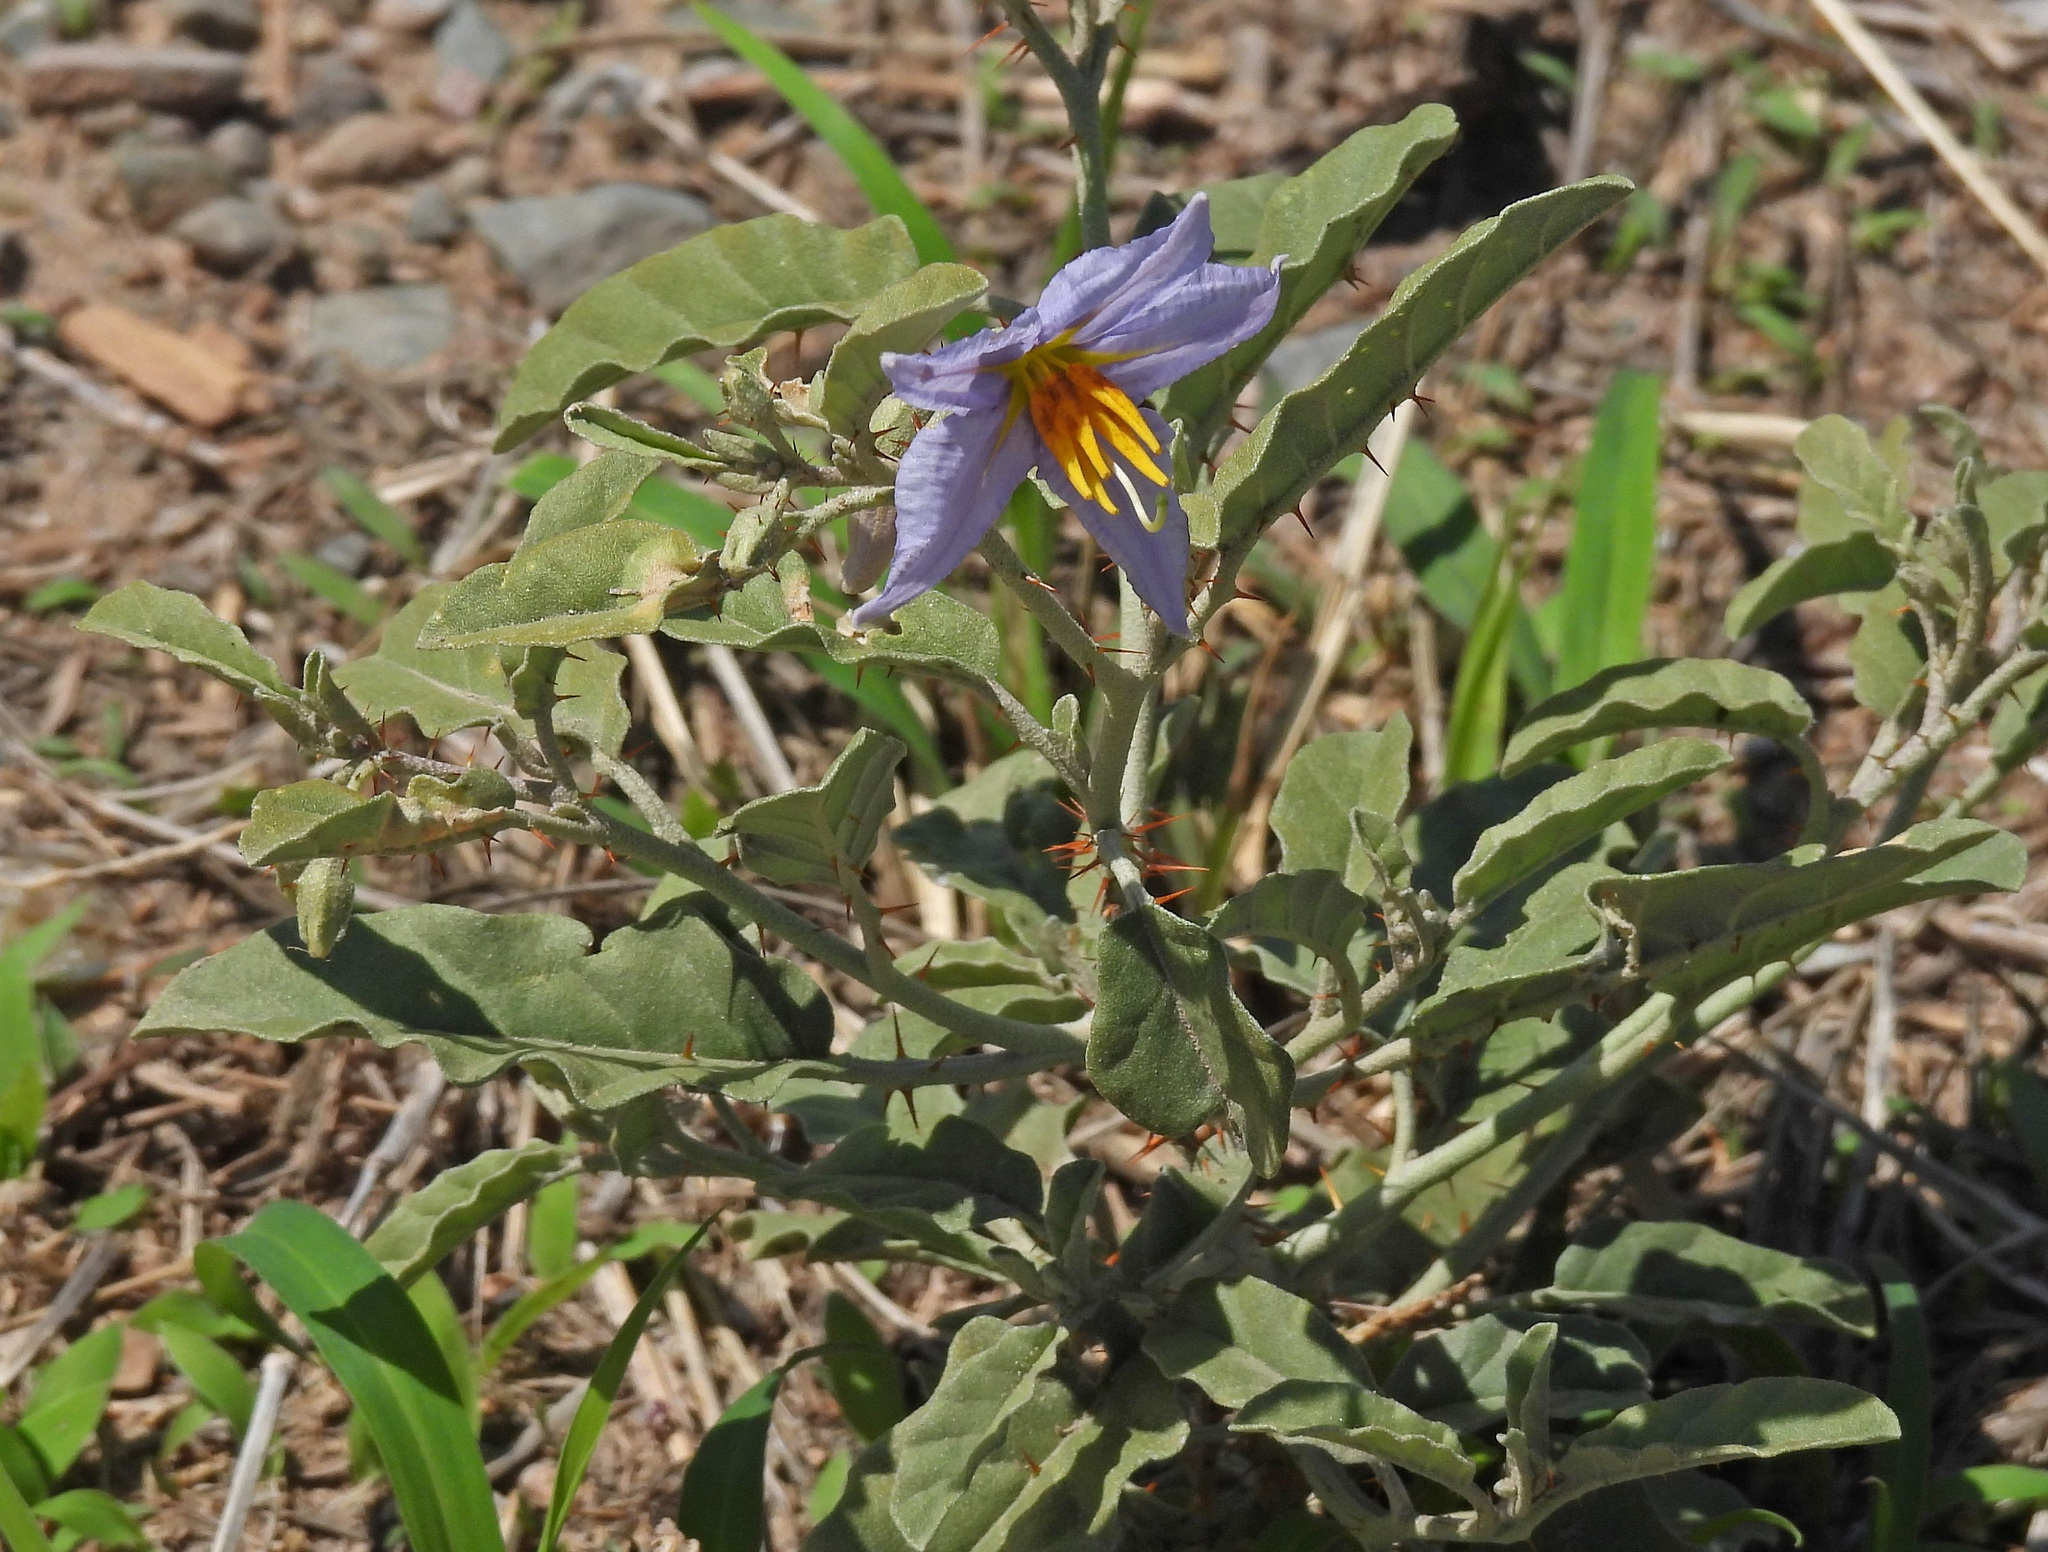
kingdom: Plantae
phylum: Tracheophyta
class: Magnoliopsida
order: Solanales
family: Solanaceae
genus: Solanum
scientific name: Solanum juvenale
